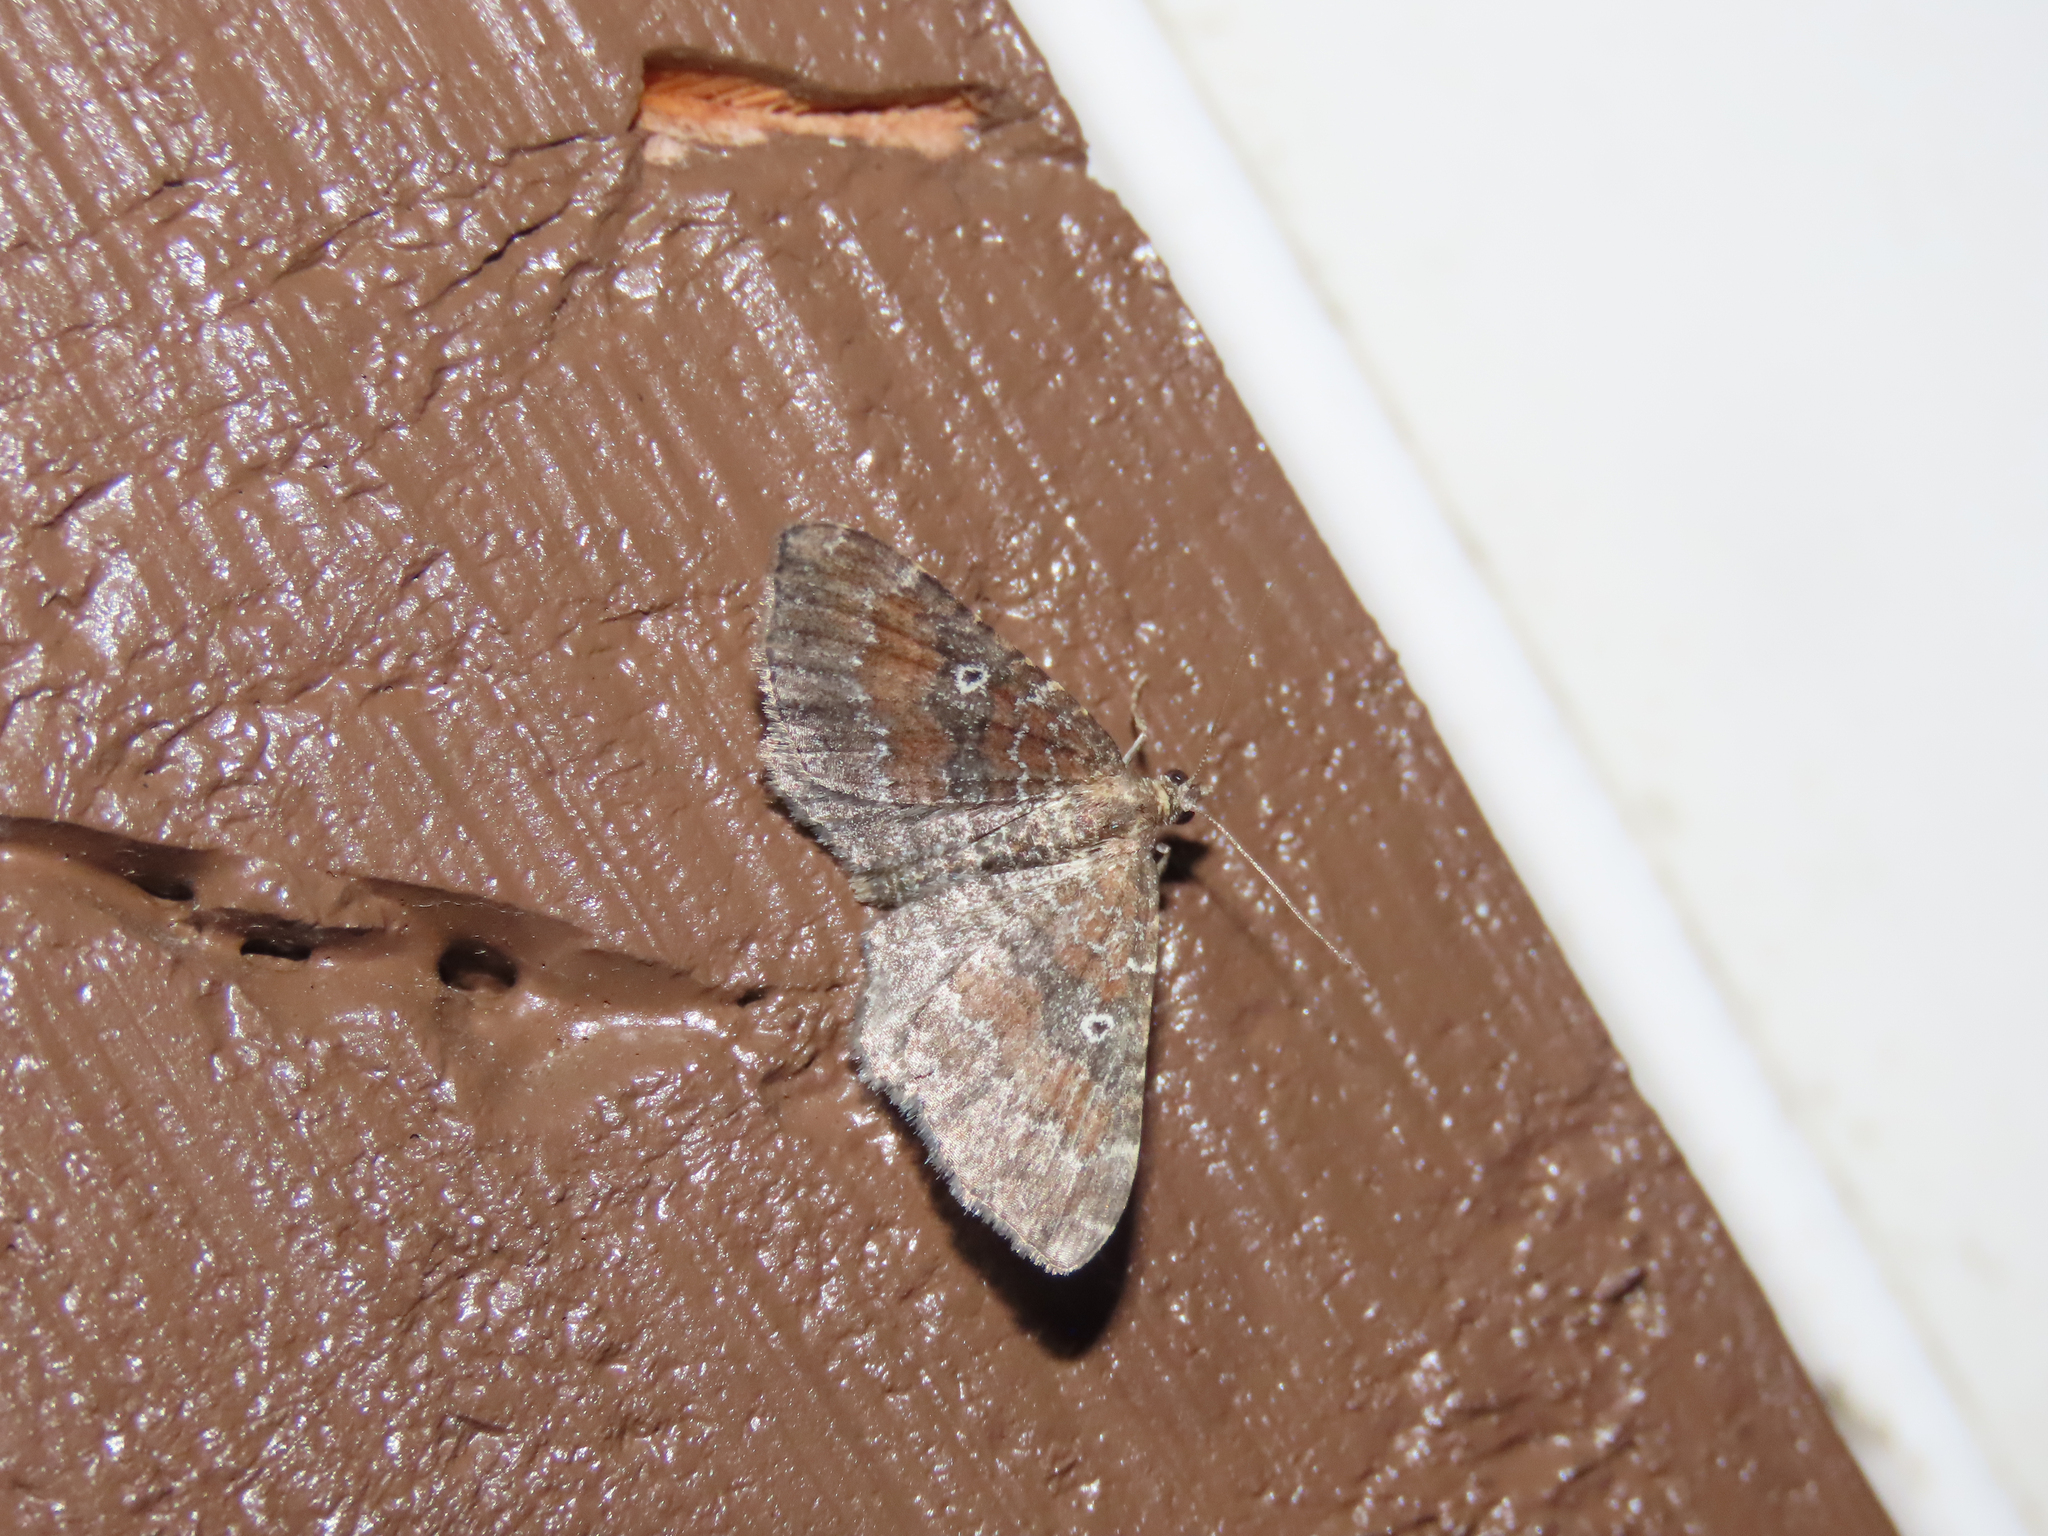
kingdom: Animalia
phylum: Arthropoda
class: Insecta
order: Lepidoptera
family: Geometridae
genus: Orthonama
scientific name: Orthonama obstipata
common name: The gem
